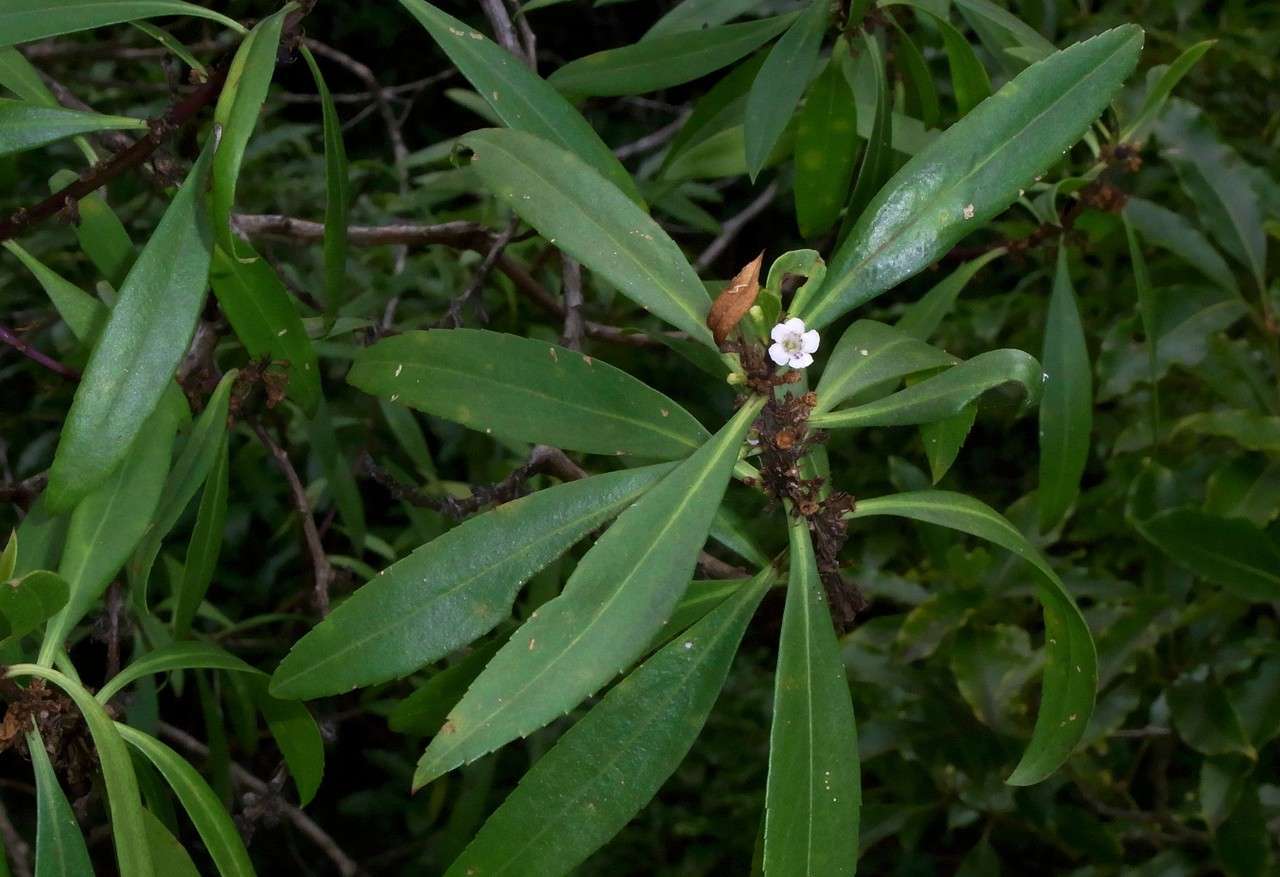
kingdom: Plantae
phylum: Tracheophyta
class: Magnoliopsida
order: Lamiales
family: Scrophulariaceae
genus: Myoporum
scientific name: Myoporum insulare
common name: Common boobialla
